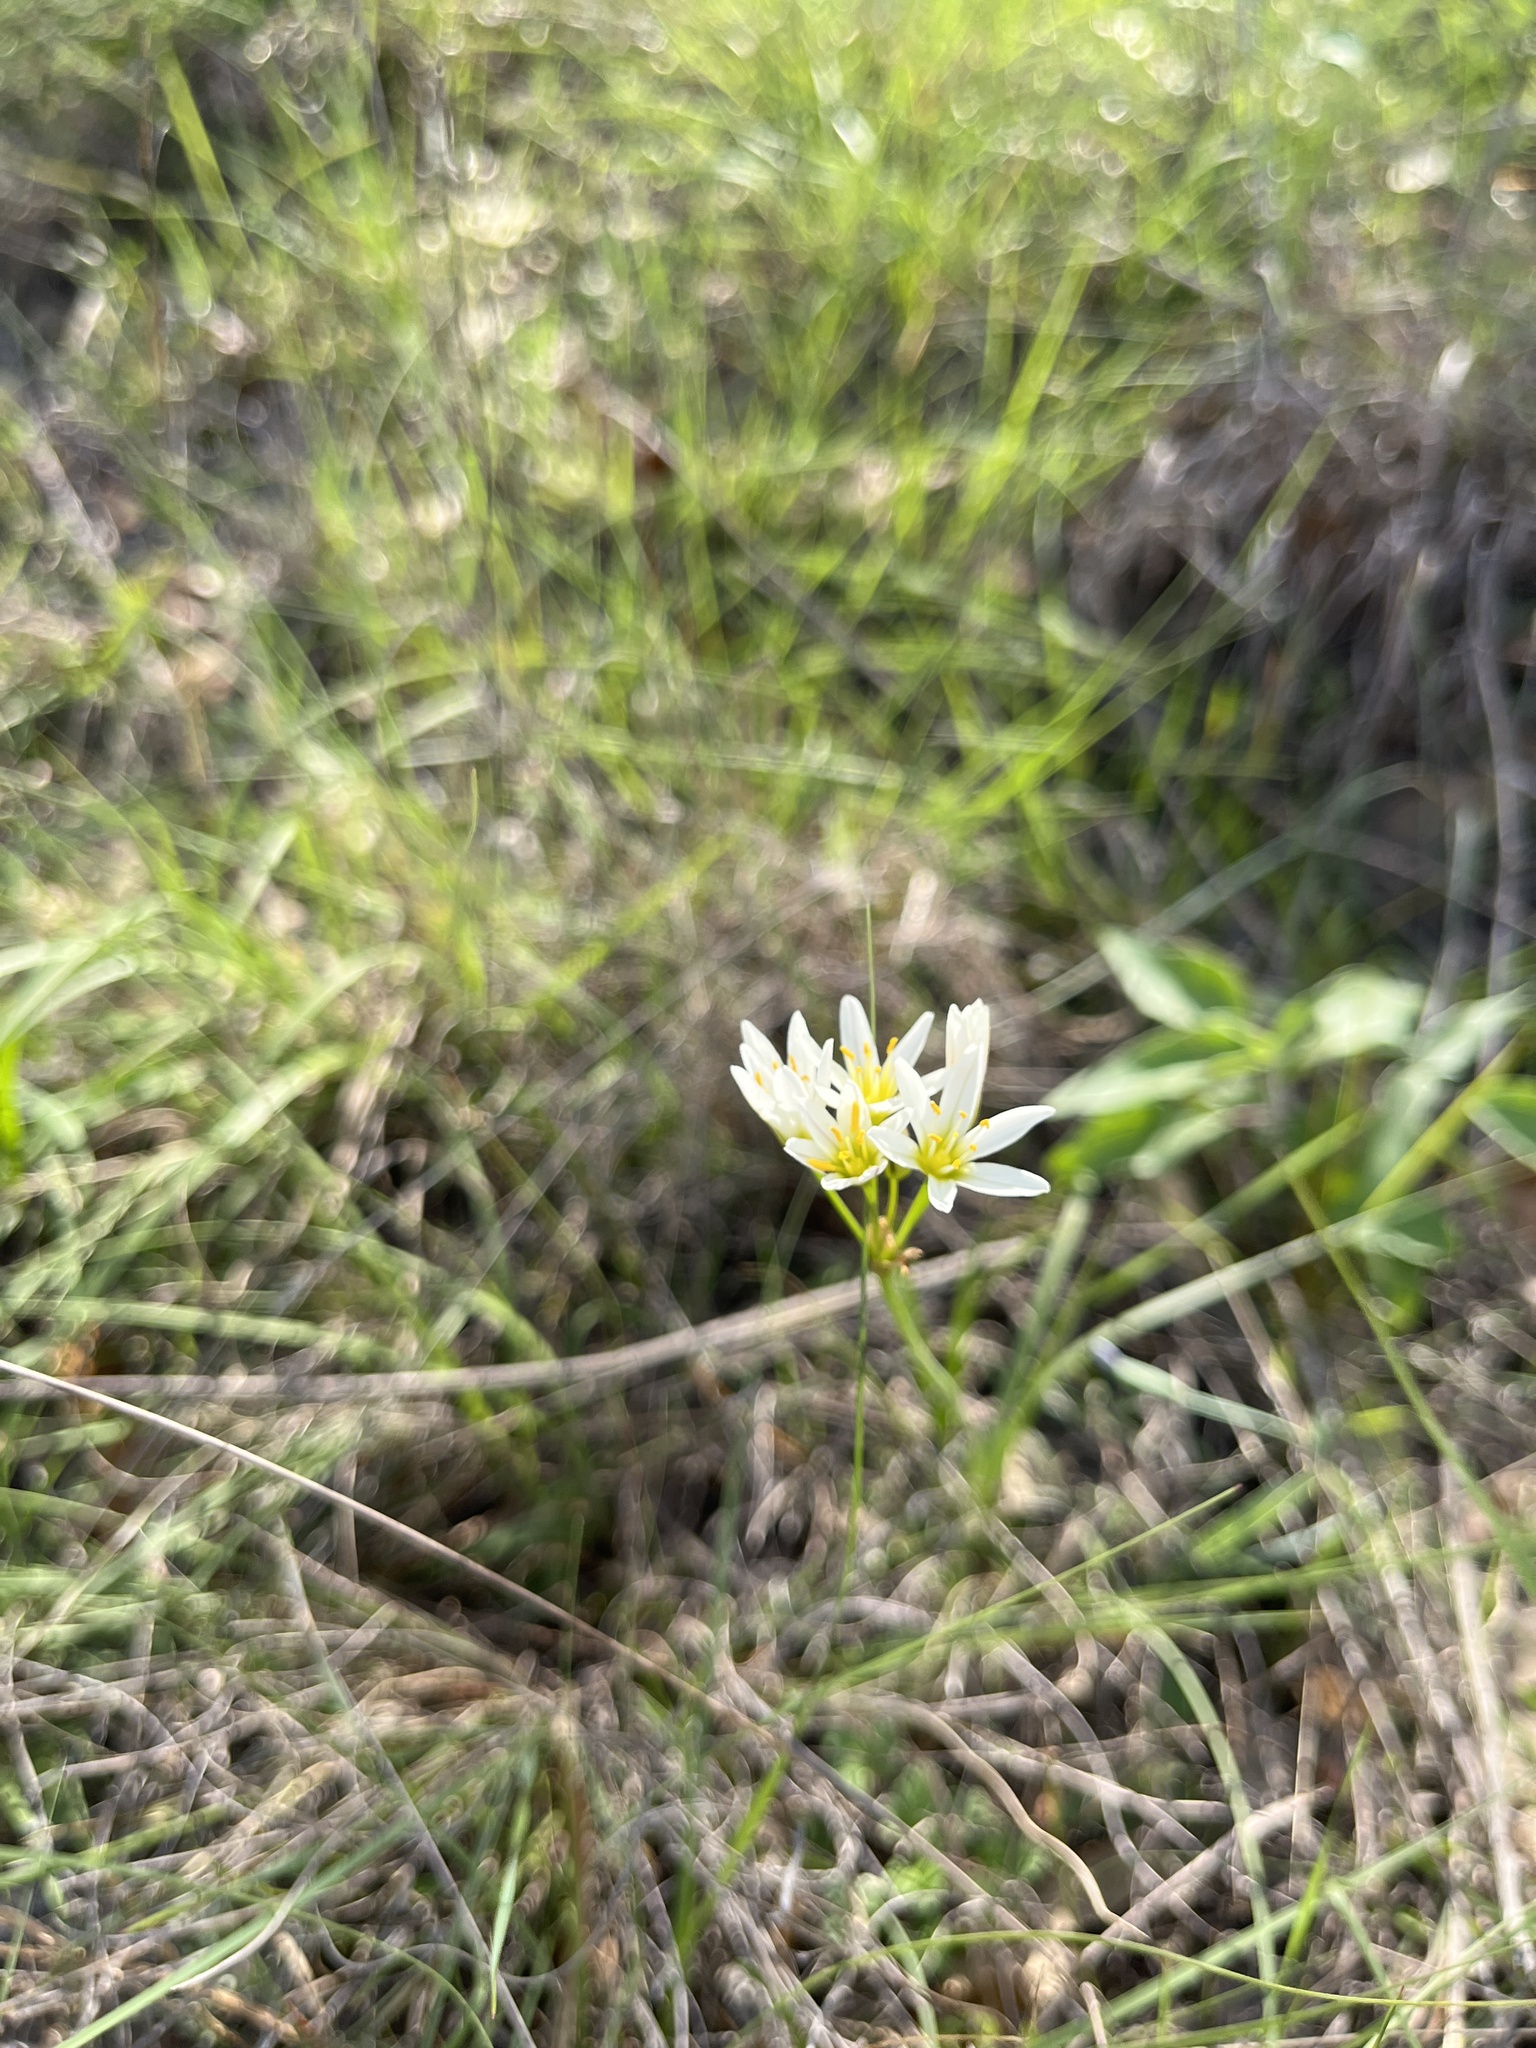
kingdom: Plantae
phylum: Tracheophyta
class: Liliopsida
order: Asparagales
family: Amaryllidaceae
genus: Nothoscordum
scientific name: Nothoscordum bivalve
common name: Crow-poison
